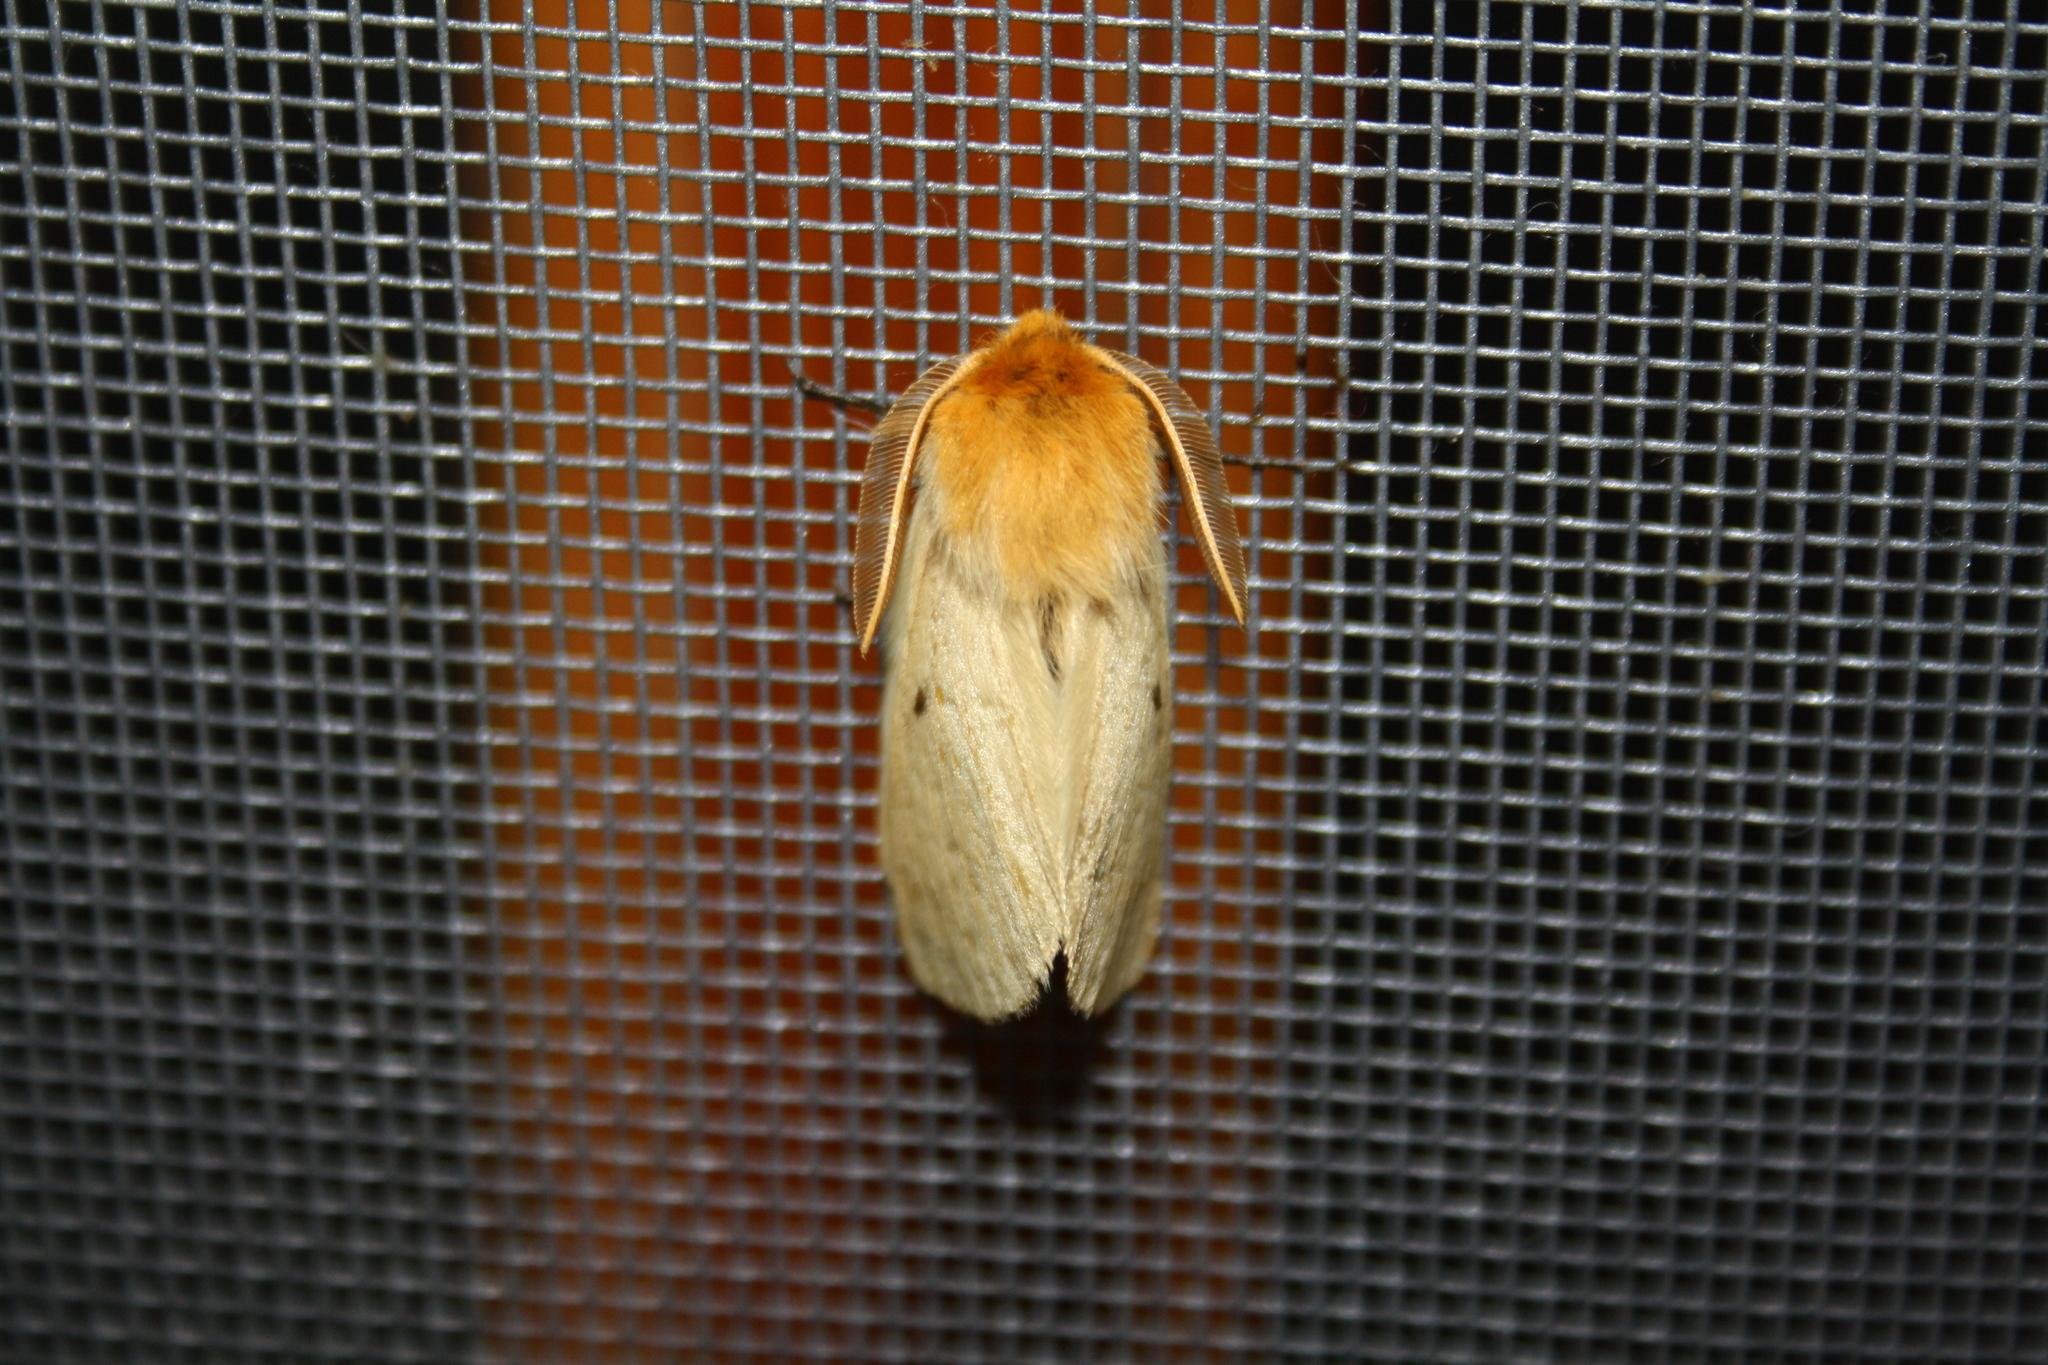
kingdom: Animalia
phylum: Arthropoda
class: Insecta
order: Lepidoptera
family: Brahmaeidae
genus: Lemonia
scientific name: Lemonia taraxaci
